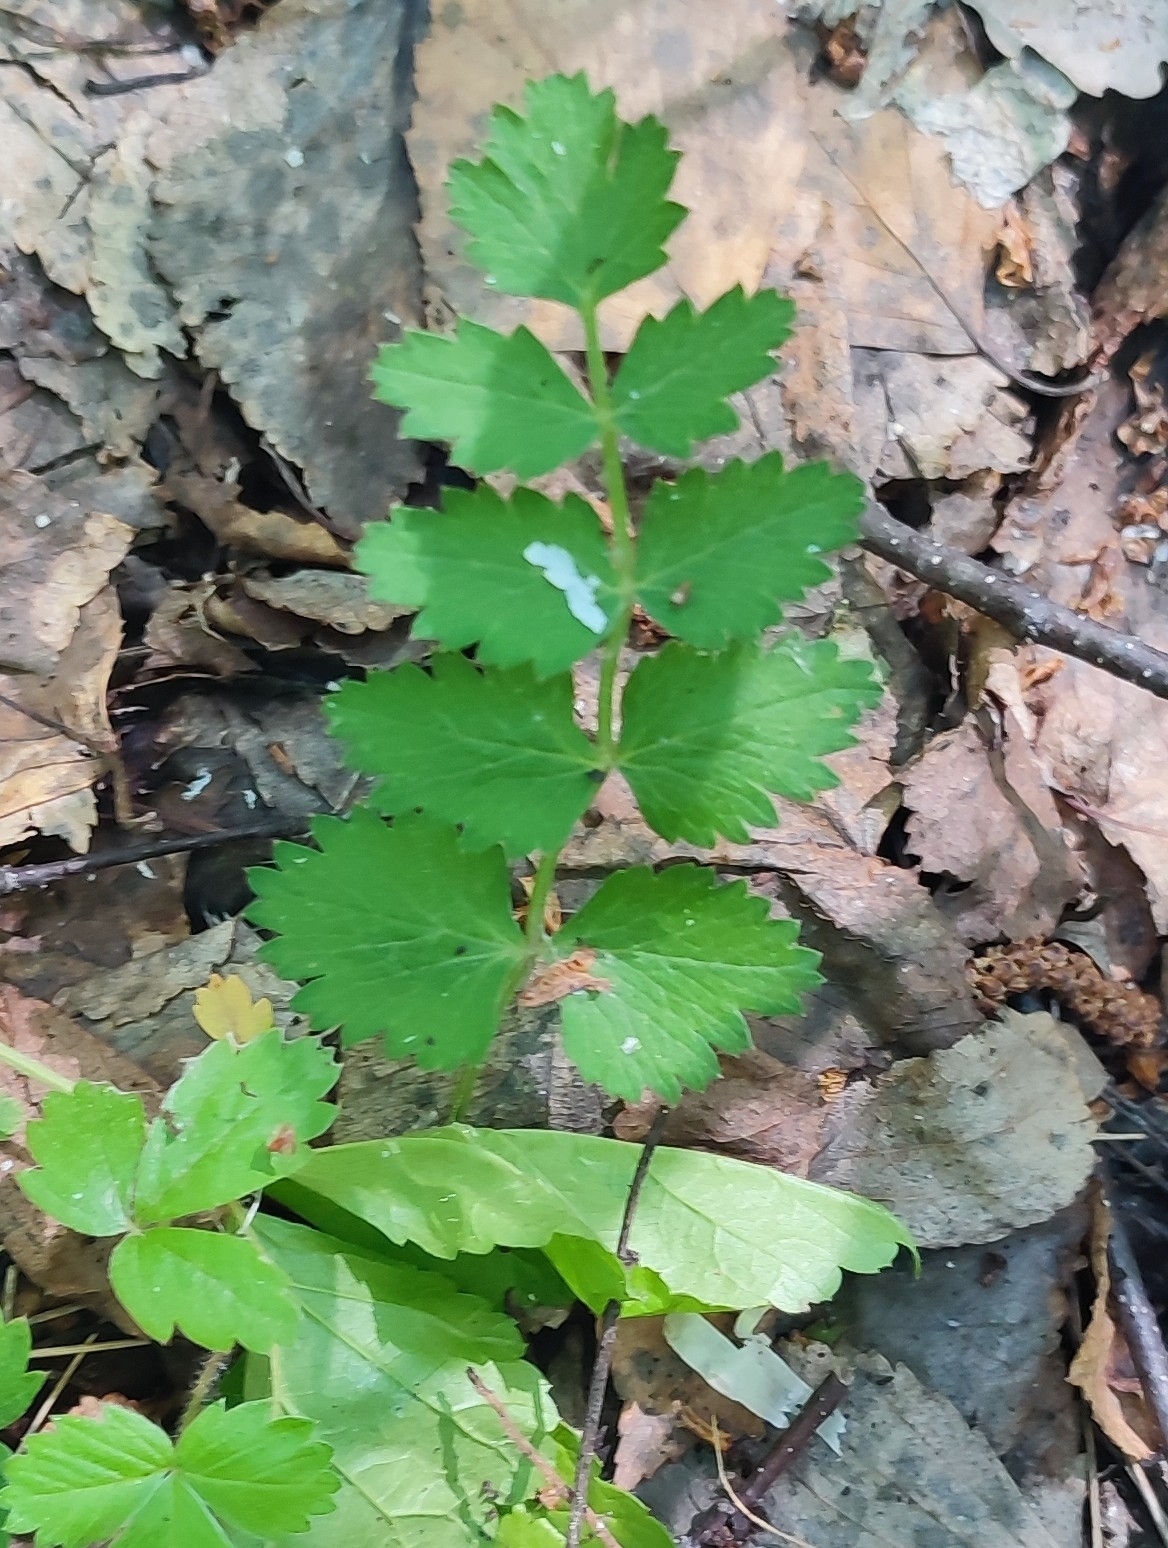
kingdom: Plantae
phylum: Tracheophyta
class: Magnoliopsida
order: Apiales
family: Apiaceae
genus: Pimpinella
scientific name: Pimpinella saxifraga
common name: Burnet-saxifrage
